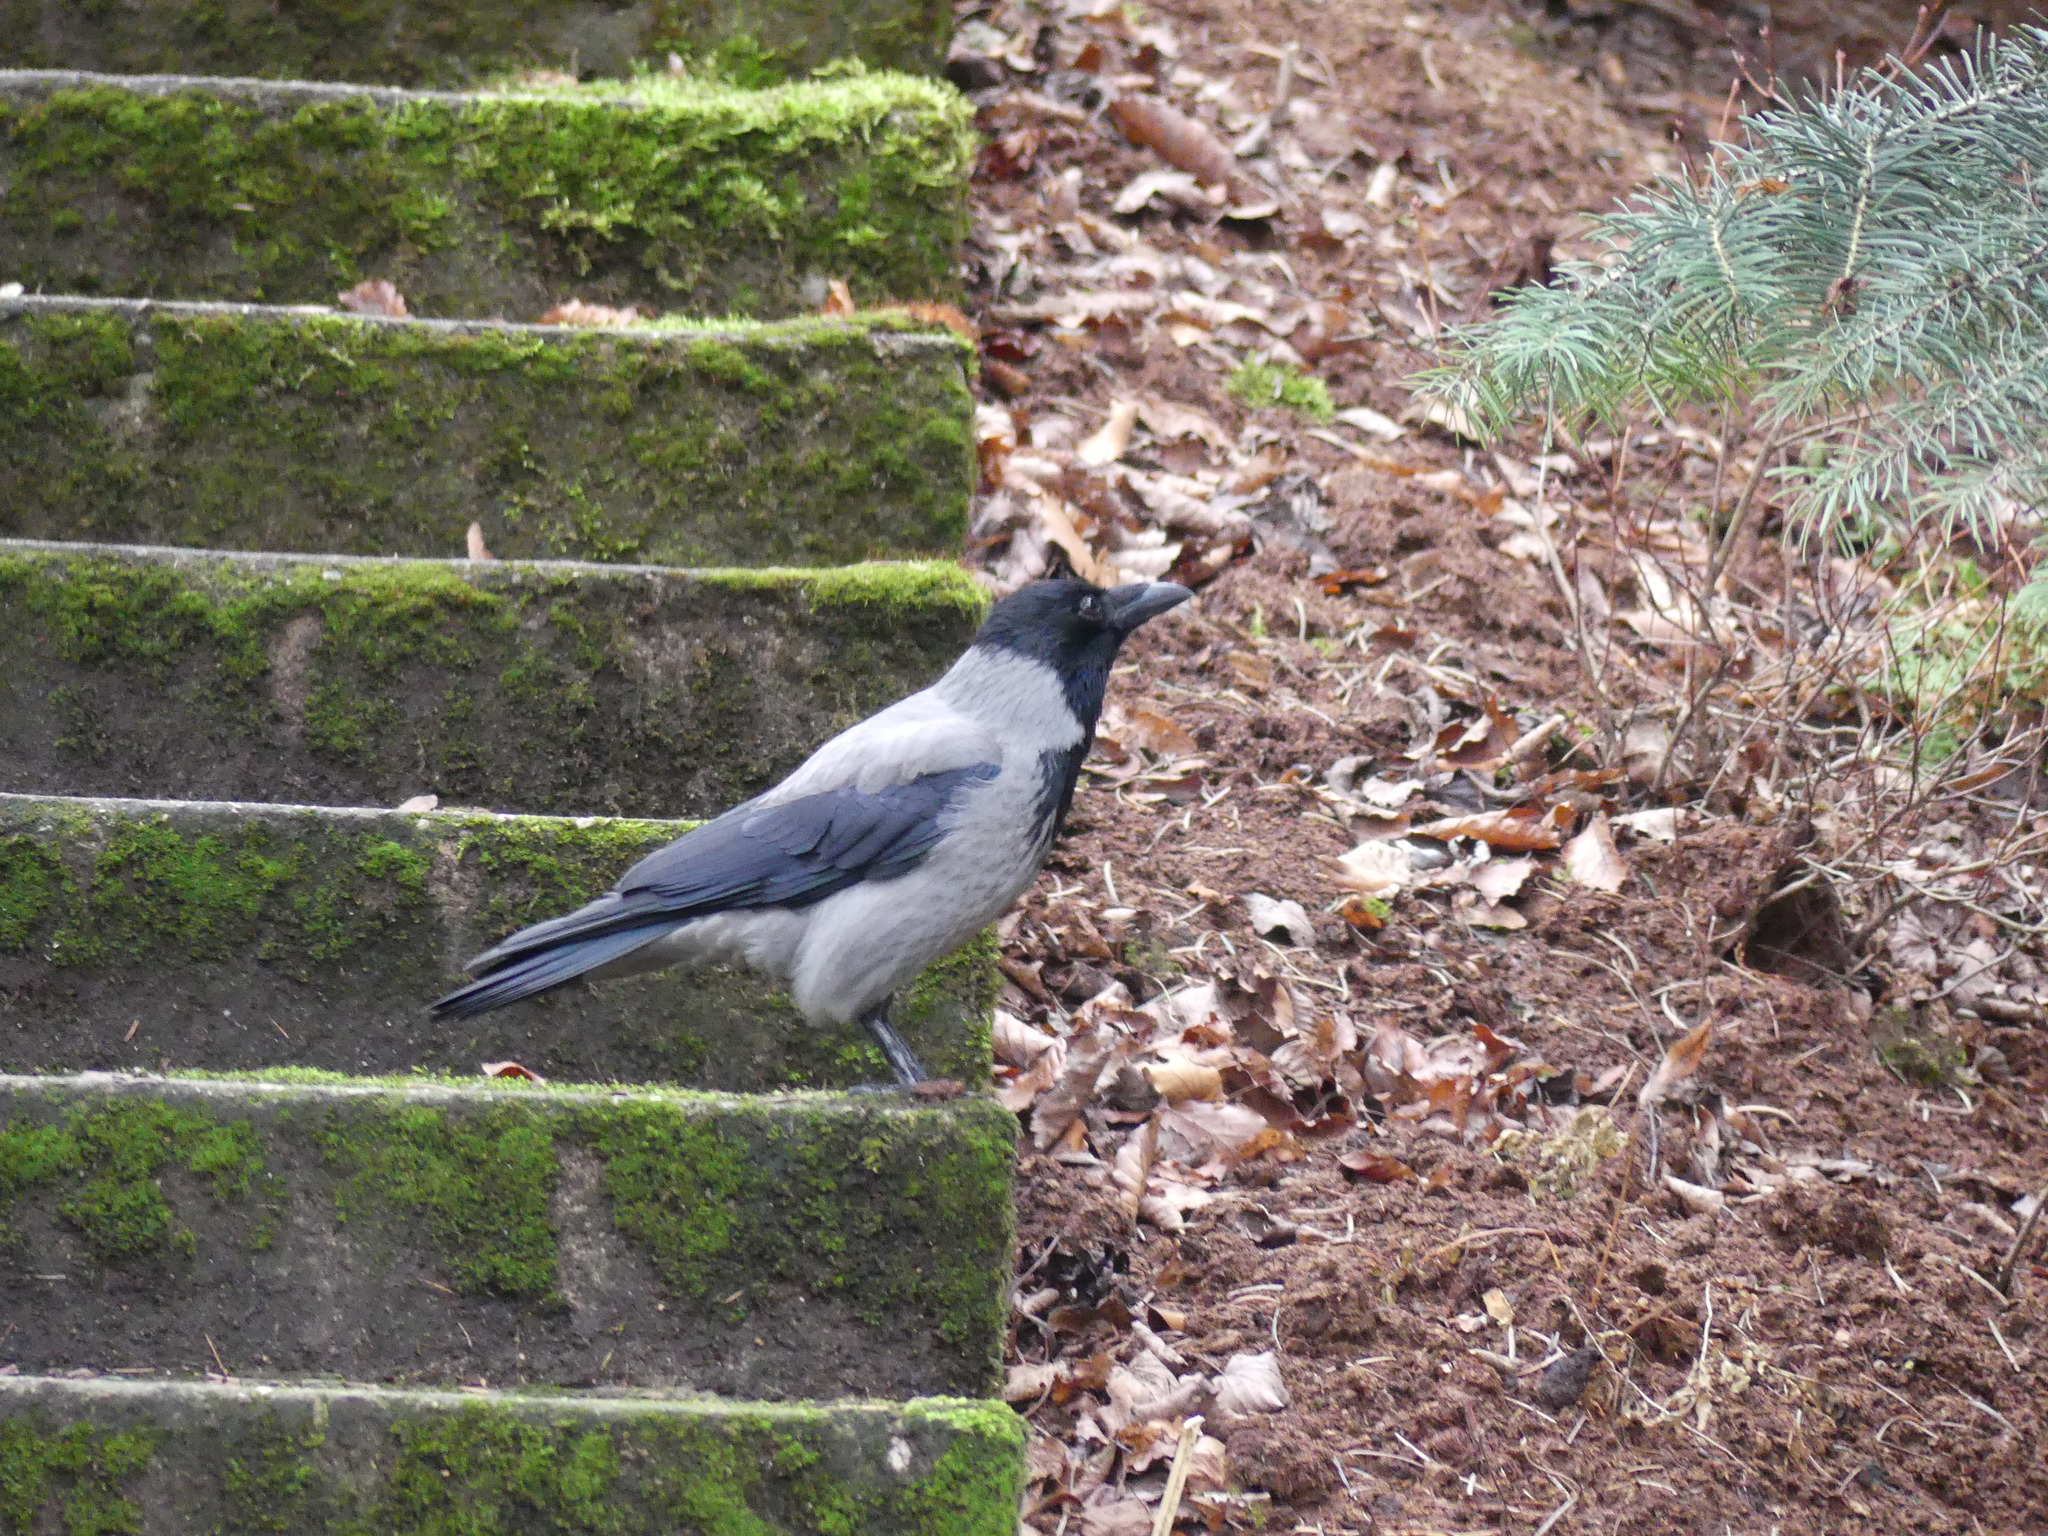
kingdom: Animalia
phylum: Chordata
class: Aves
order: Passeriformes
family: Corvidae
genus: Corvus
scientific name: Corvus cornix
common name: Hooded crow
